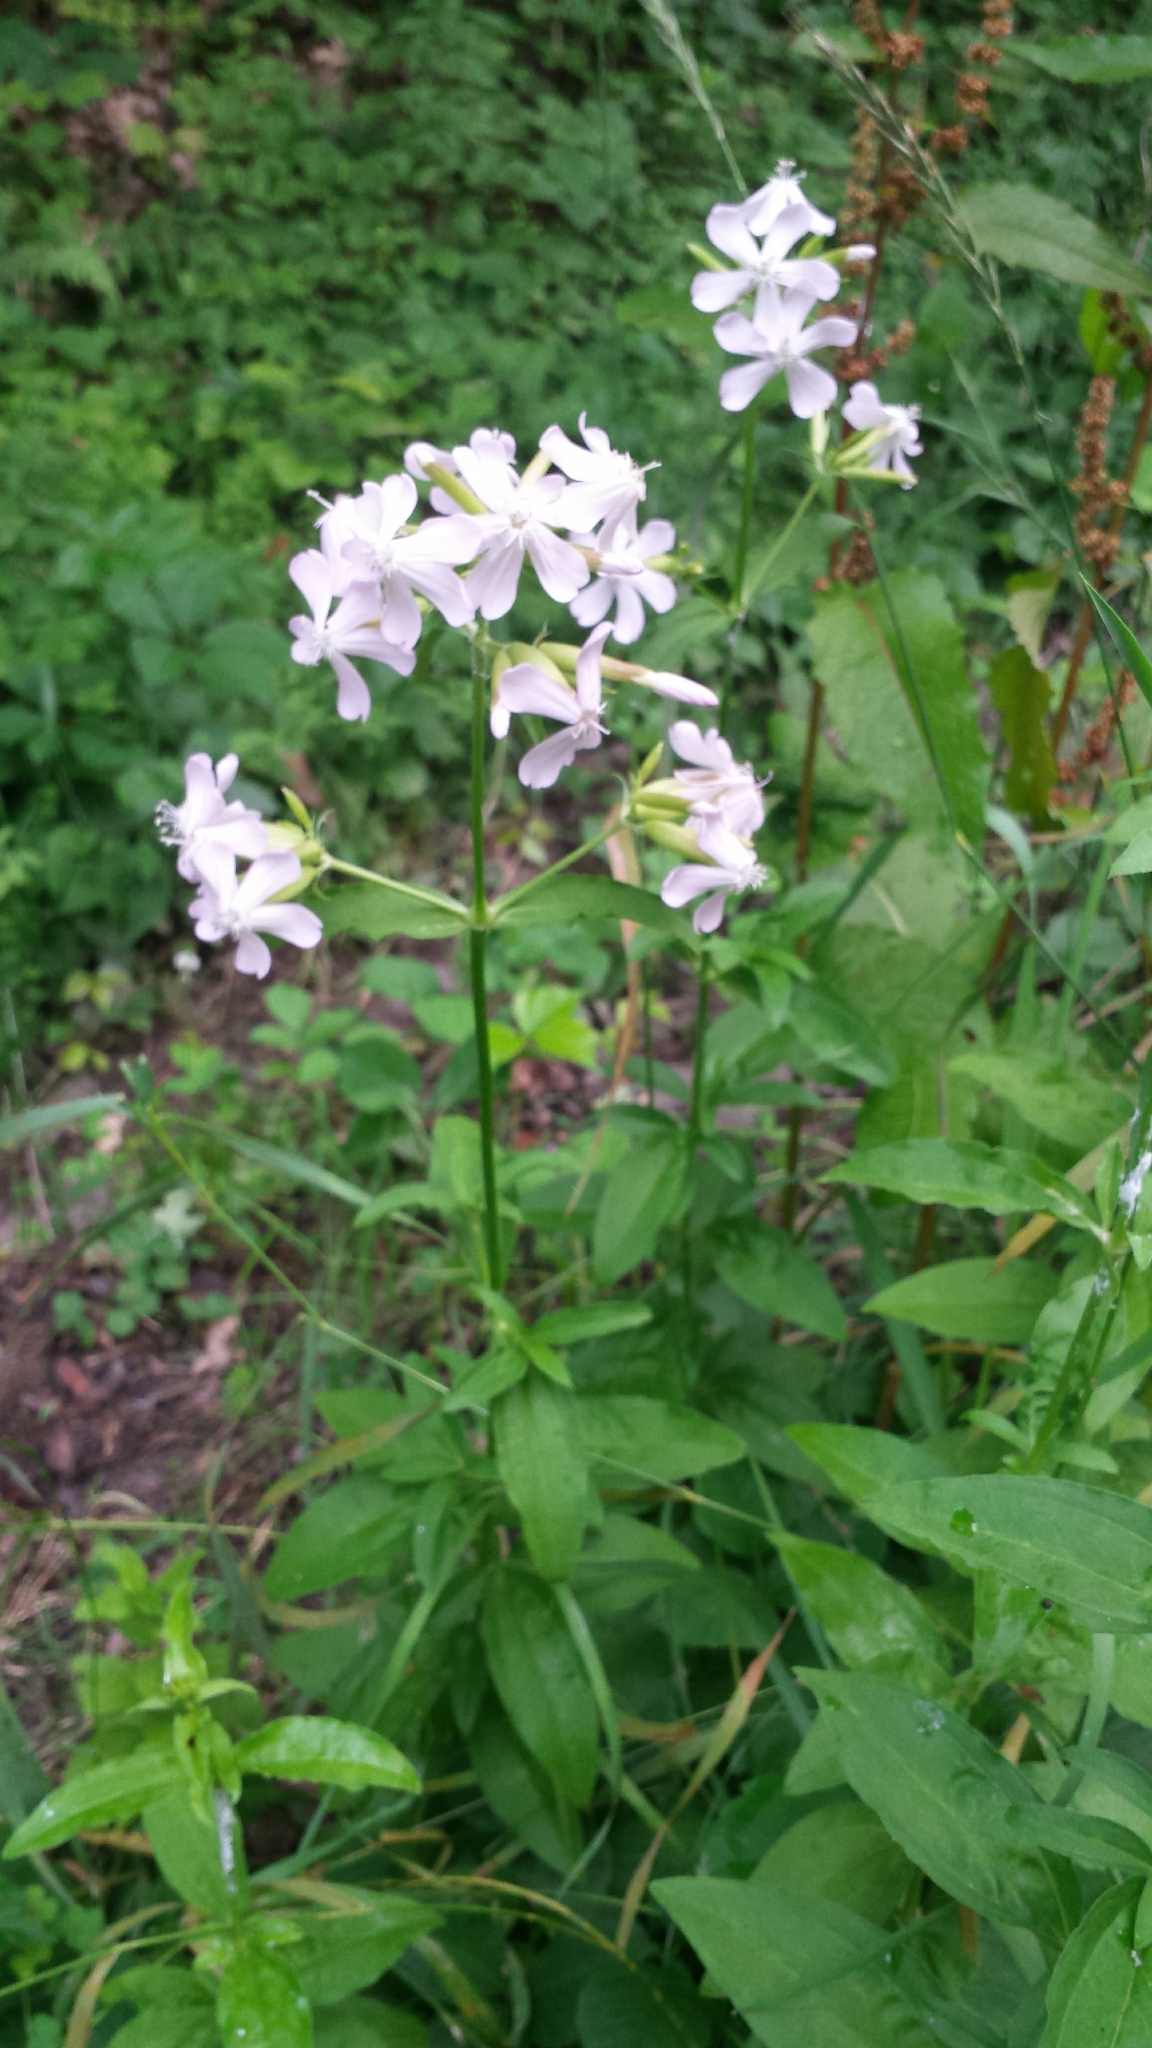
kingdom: Plantae
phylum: Tracheophyta
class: Magnoliopsida
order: Caryophyllales
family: Caryophyllaceae
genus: Saponaria
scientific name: Saponaria officinalis
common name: Soapwort
